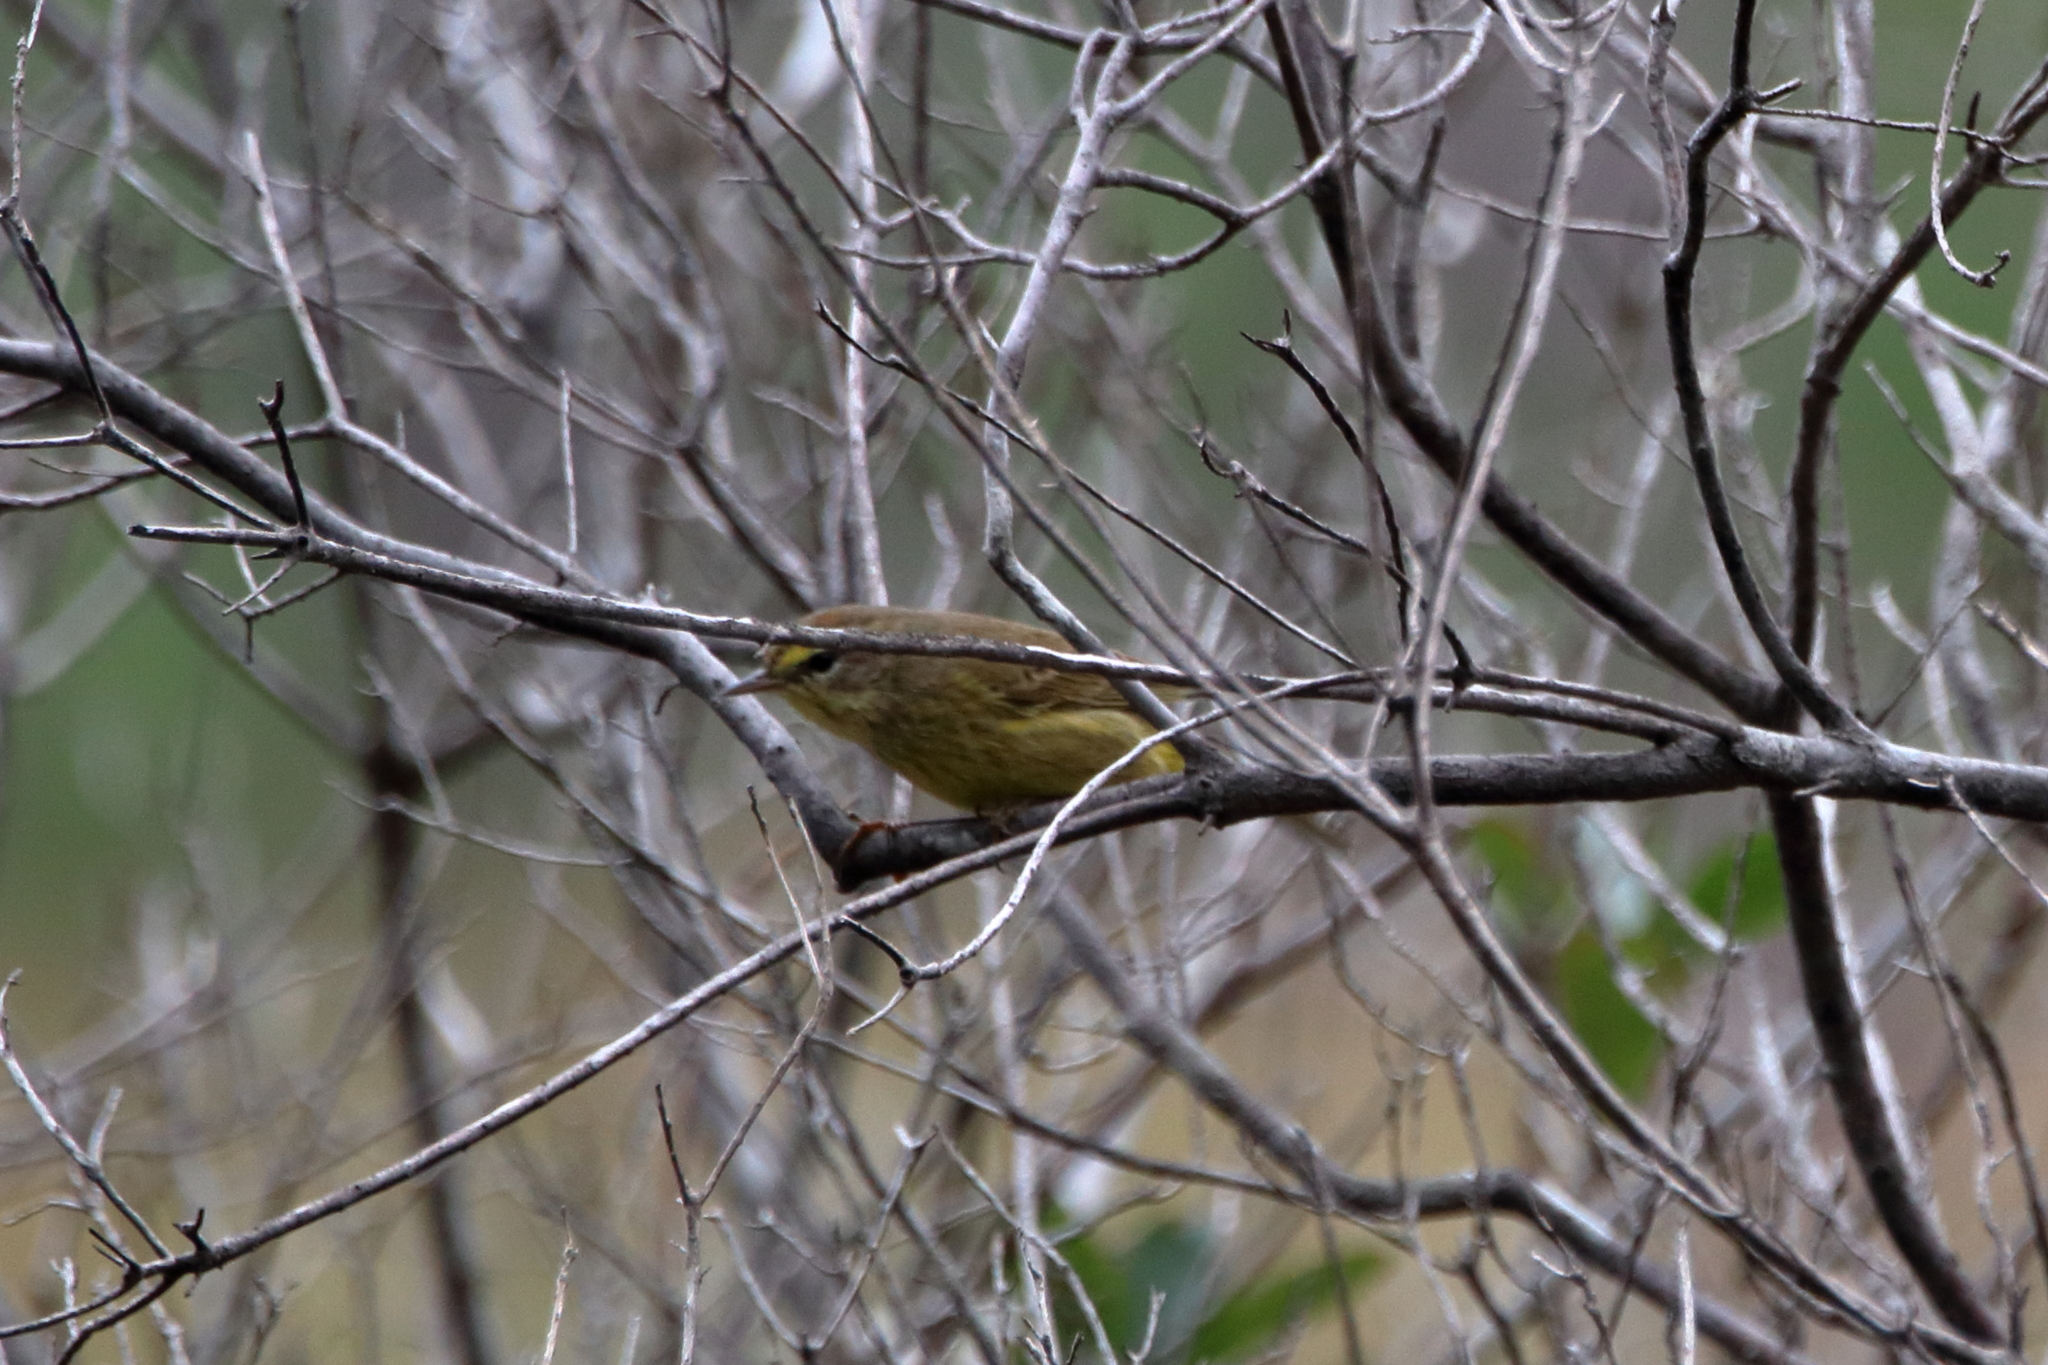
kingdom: Animalia
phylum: Chordata
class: Aves
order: Passeriformes
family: Parulidae
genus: Setophaga
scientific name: Setophaga palmarum
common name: Palm warbler
